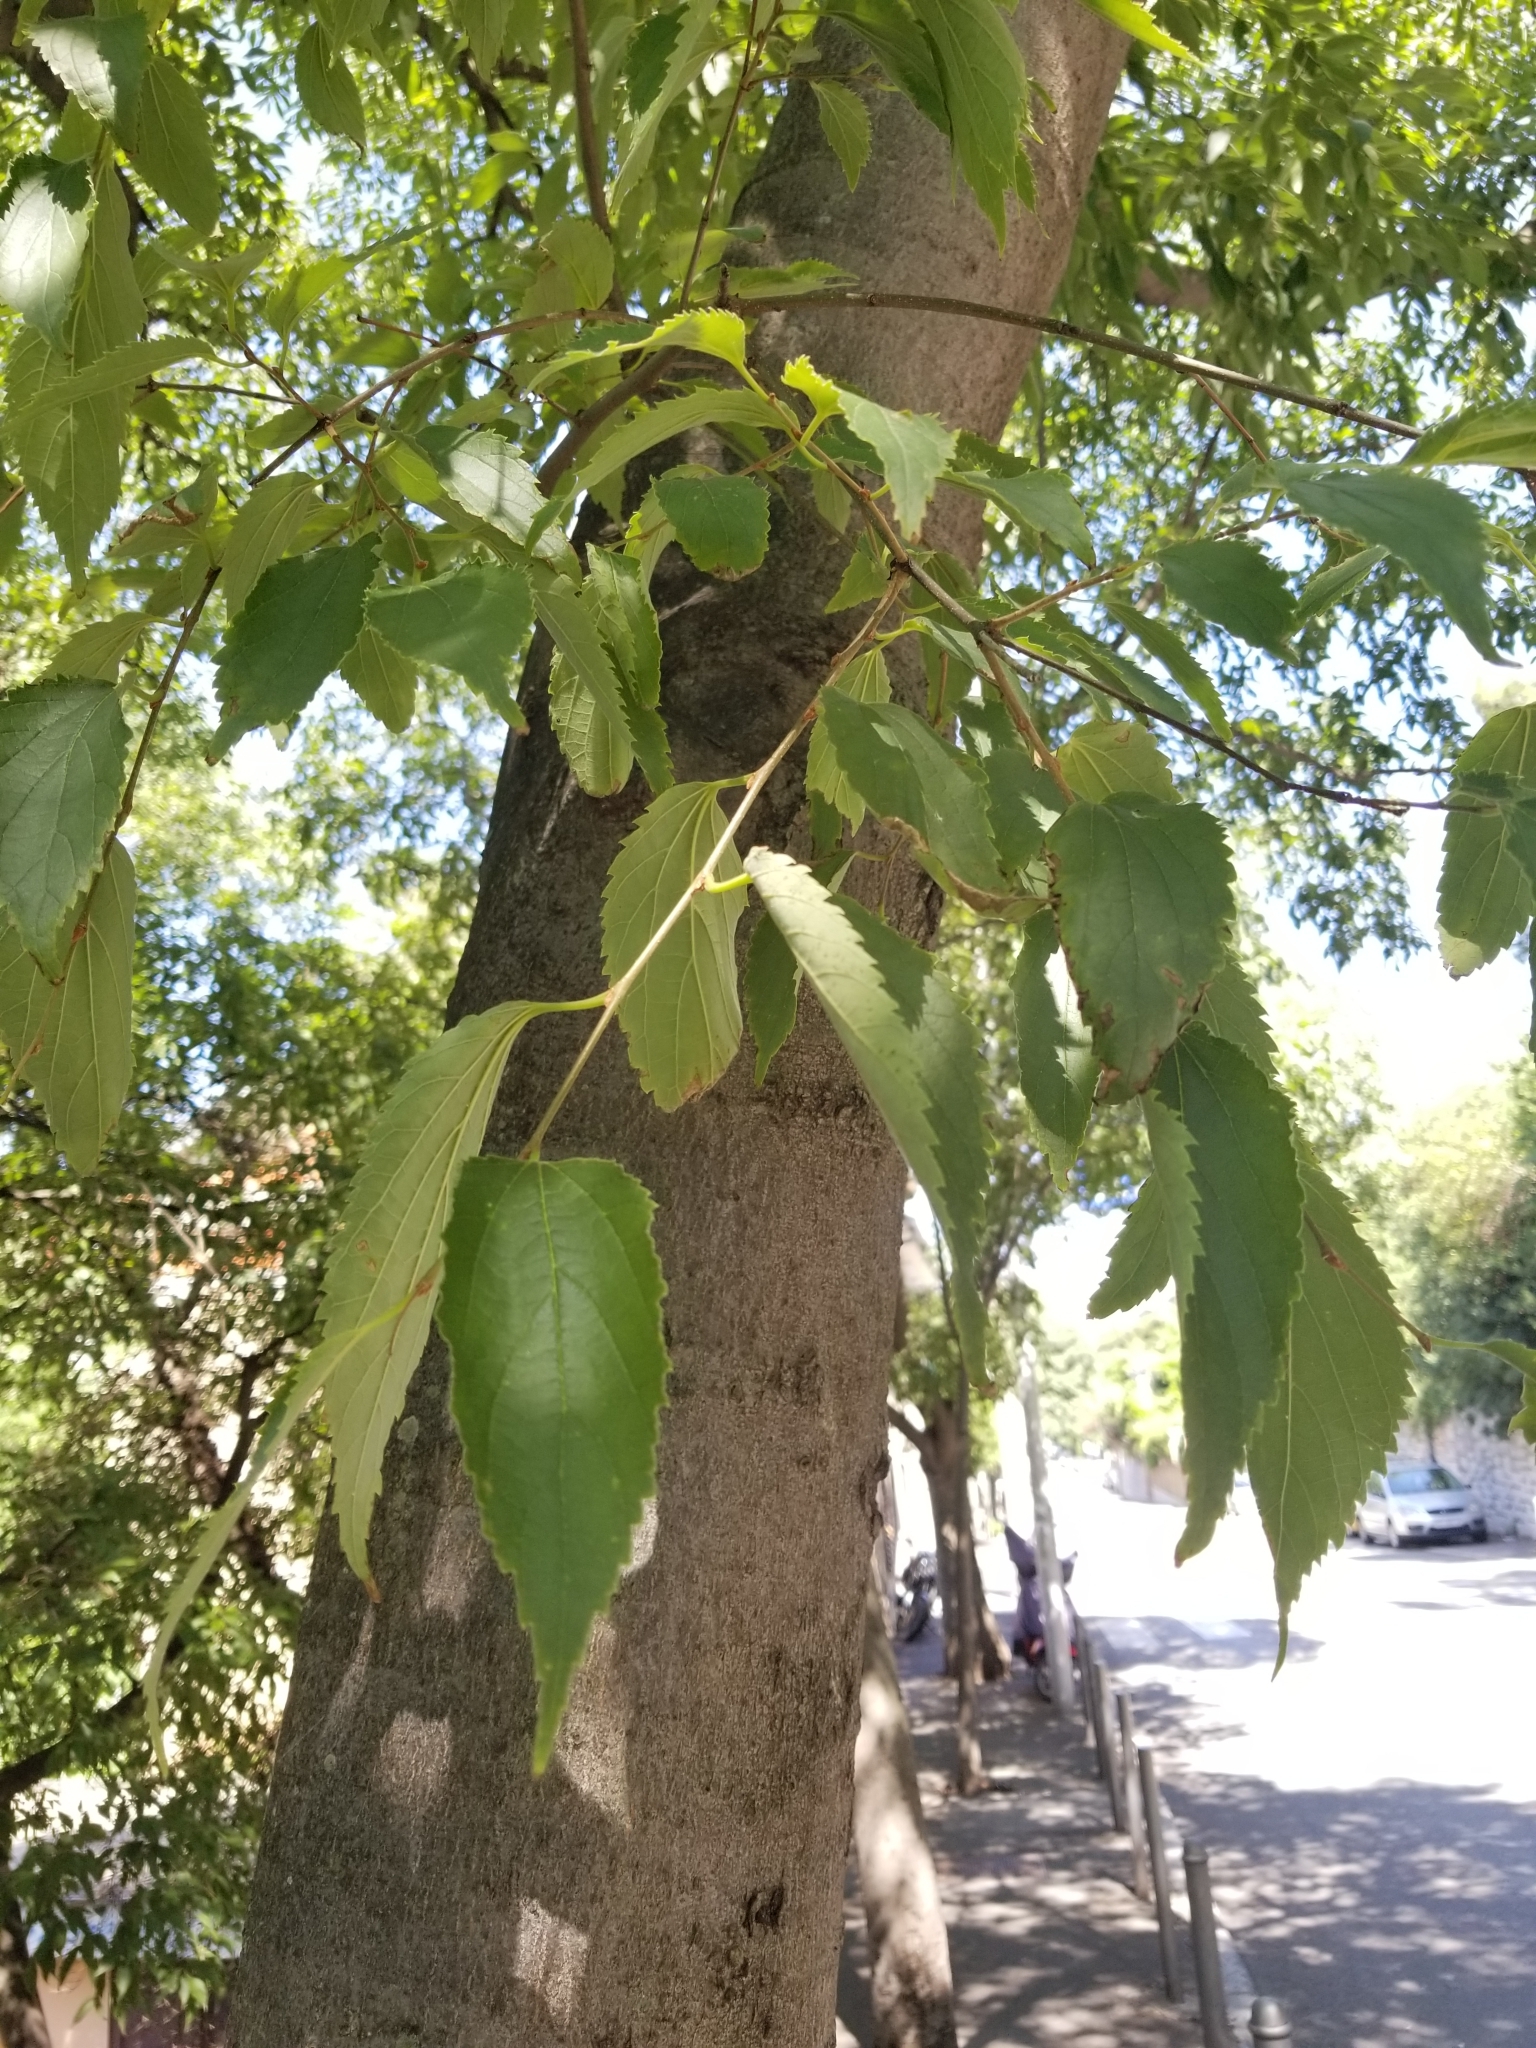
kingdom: Plantae
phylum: Tracheophyta
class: Magnoliopsida
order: Rosales
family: Cannabaceae
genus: Celtis
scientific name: Celtis australis
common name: European hackberry
